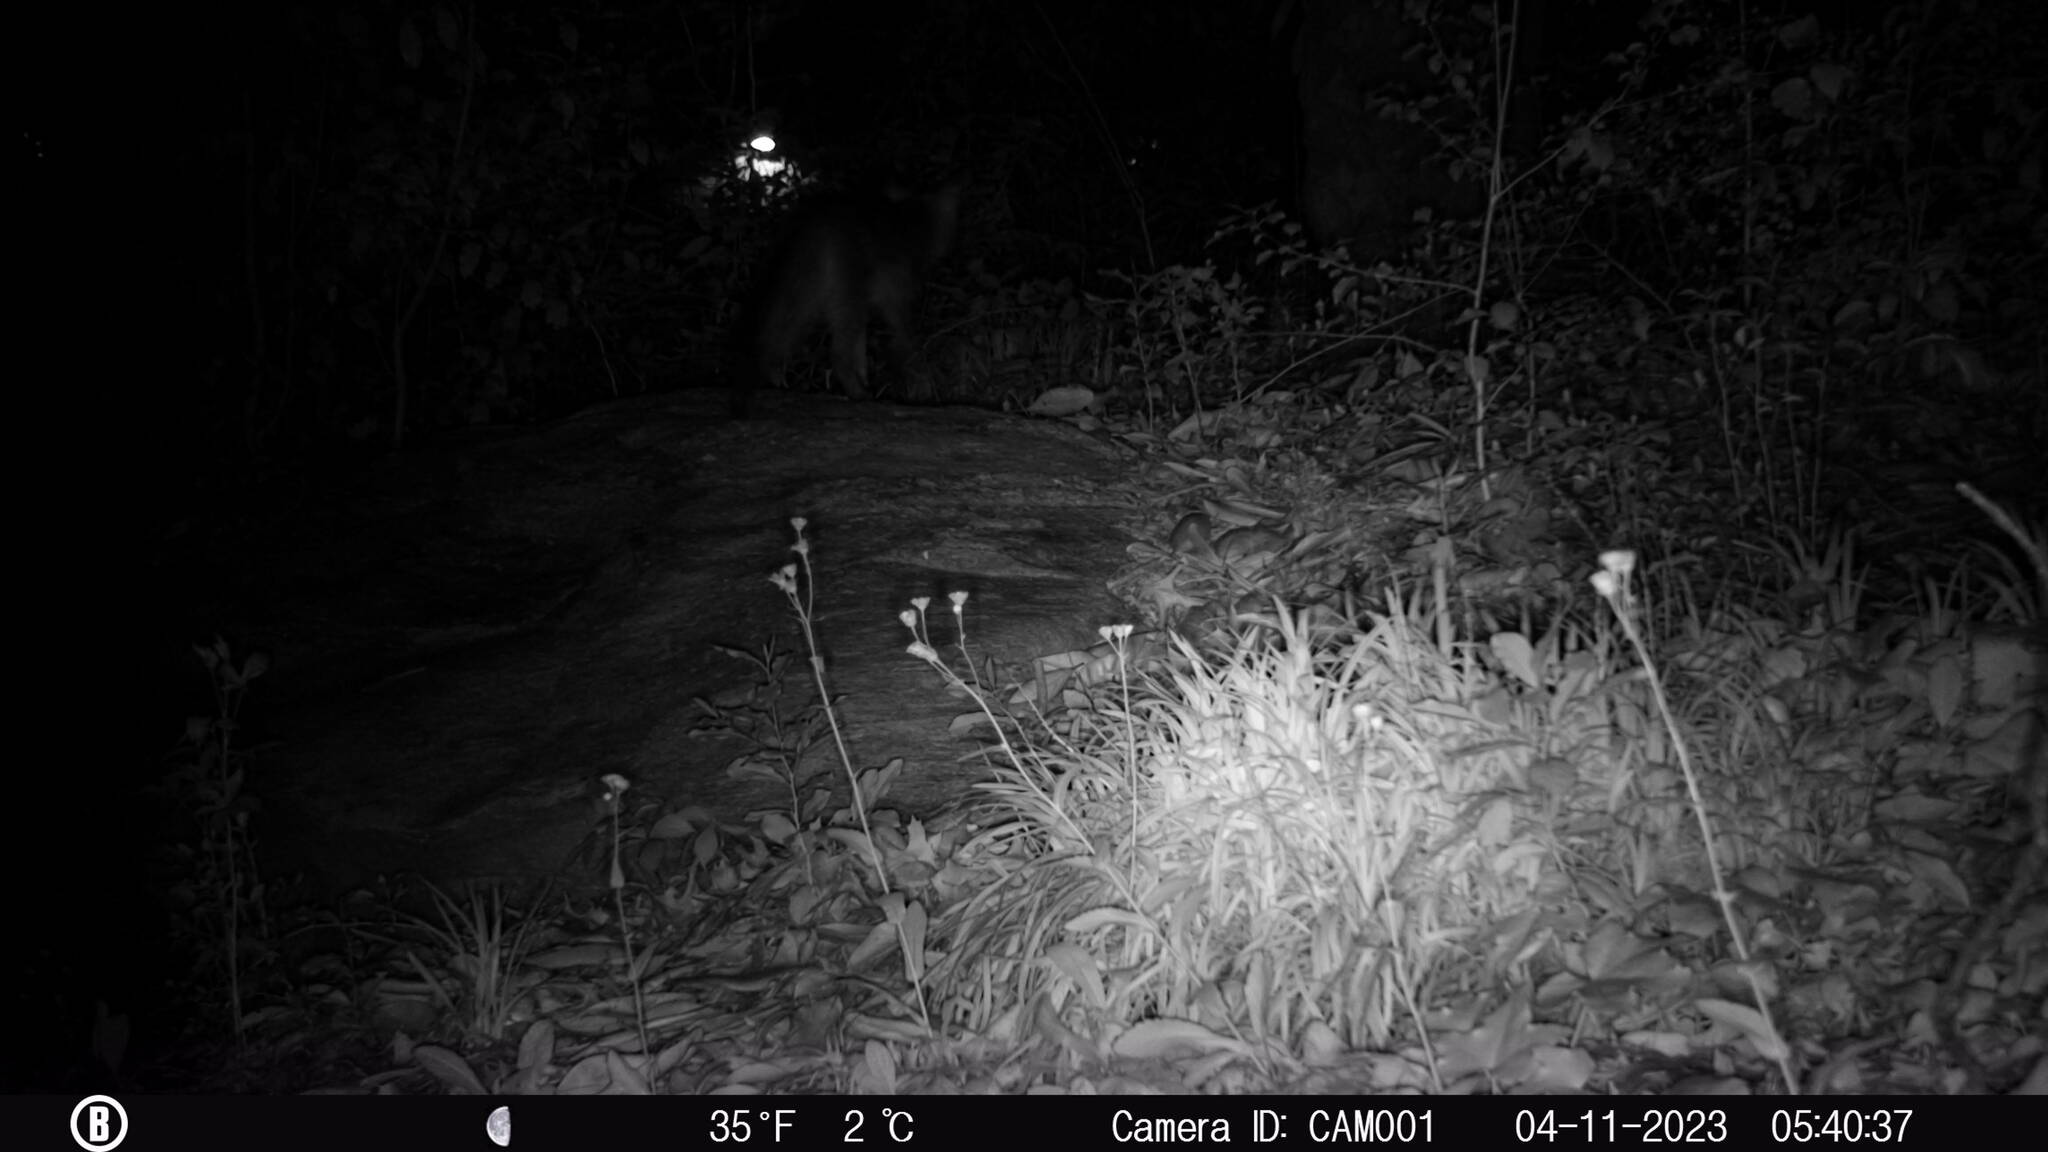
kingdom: Animalia
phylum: Chordata
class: Mammalia
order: Carnivora
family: Canidae
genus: Urocyon
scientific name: Urocyon cinereoargenteus
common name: Gray fox
